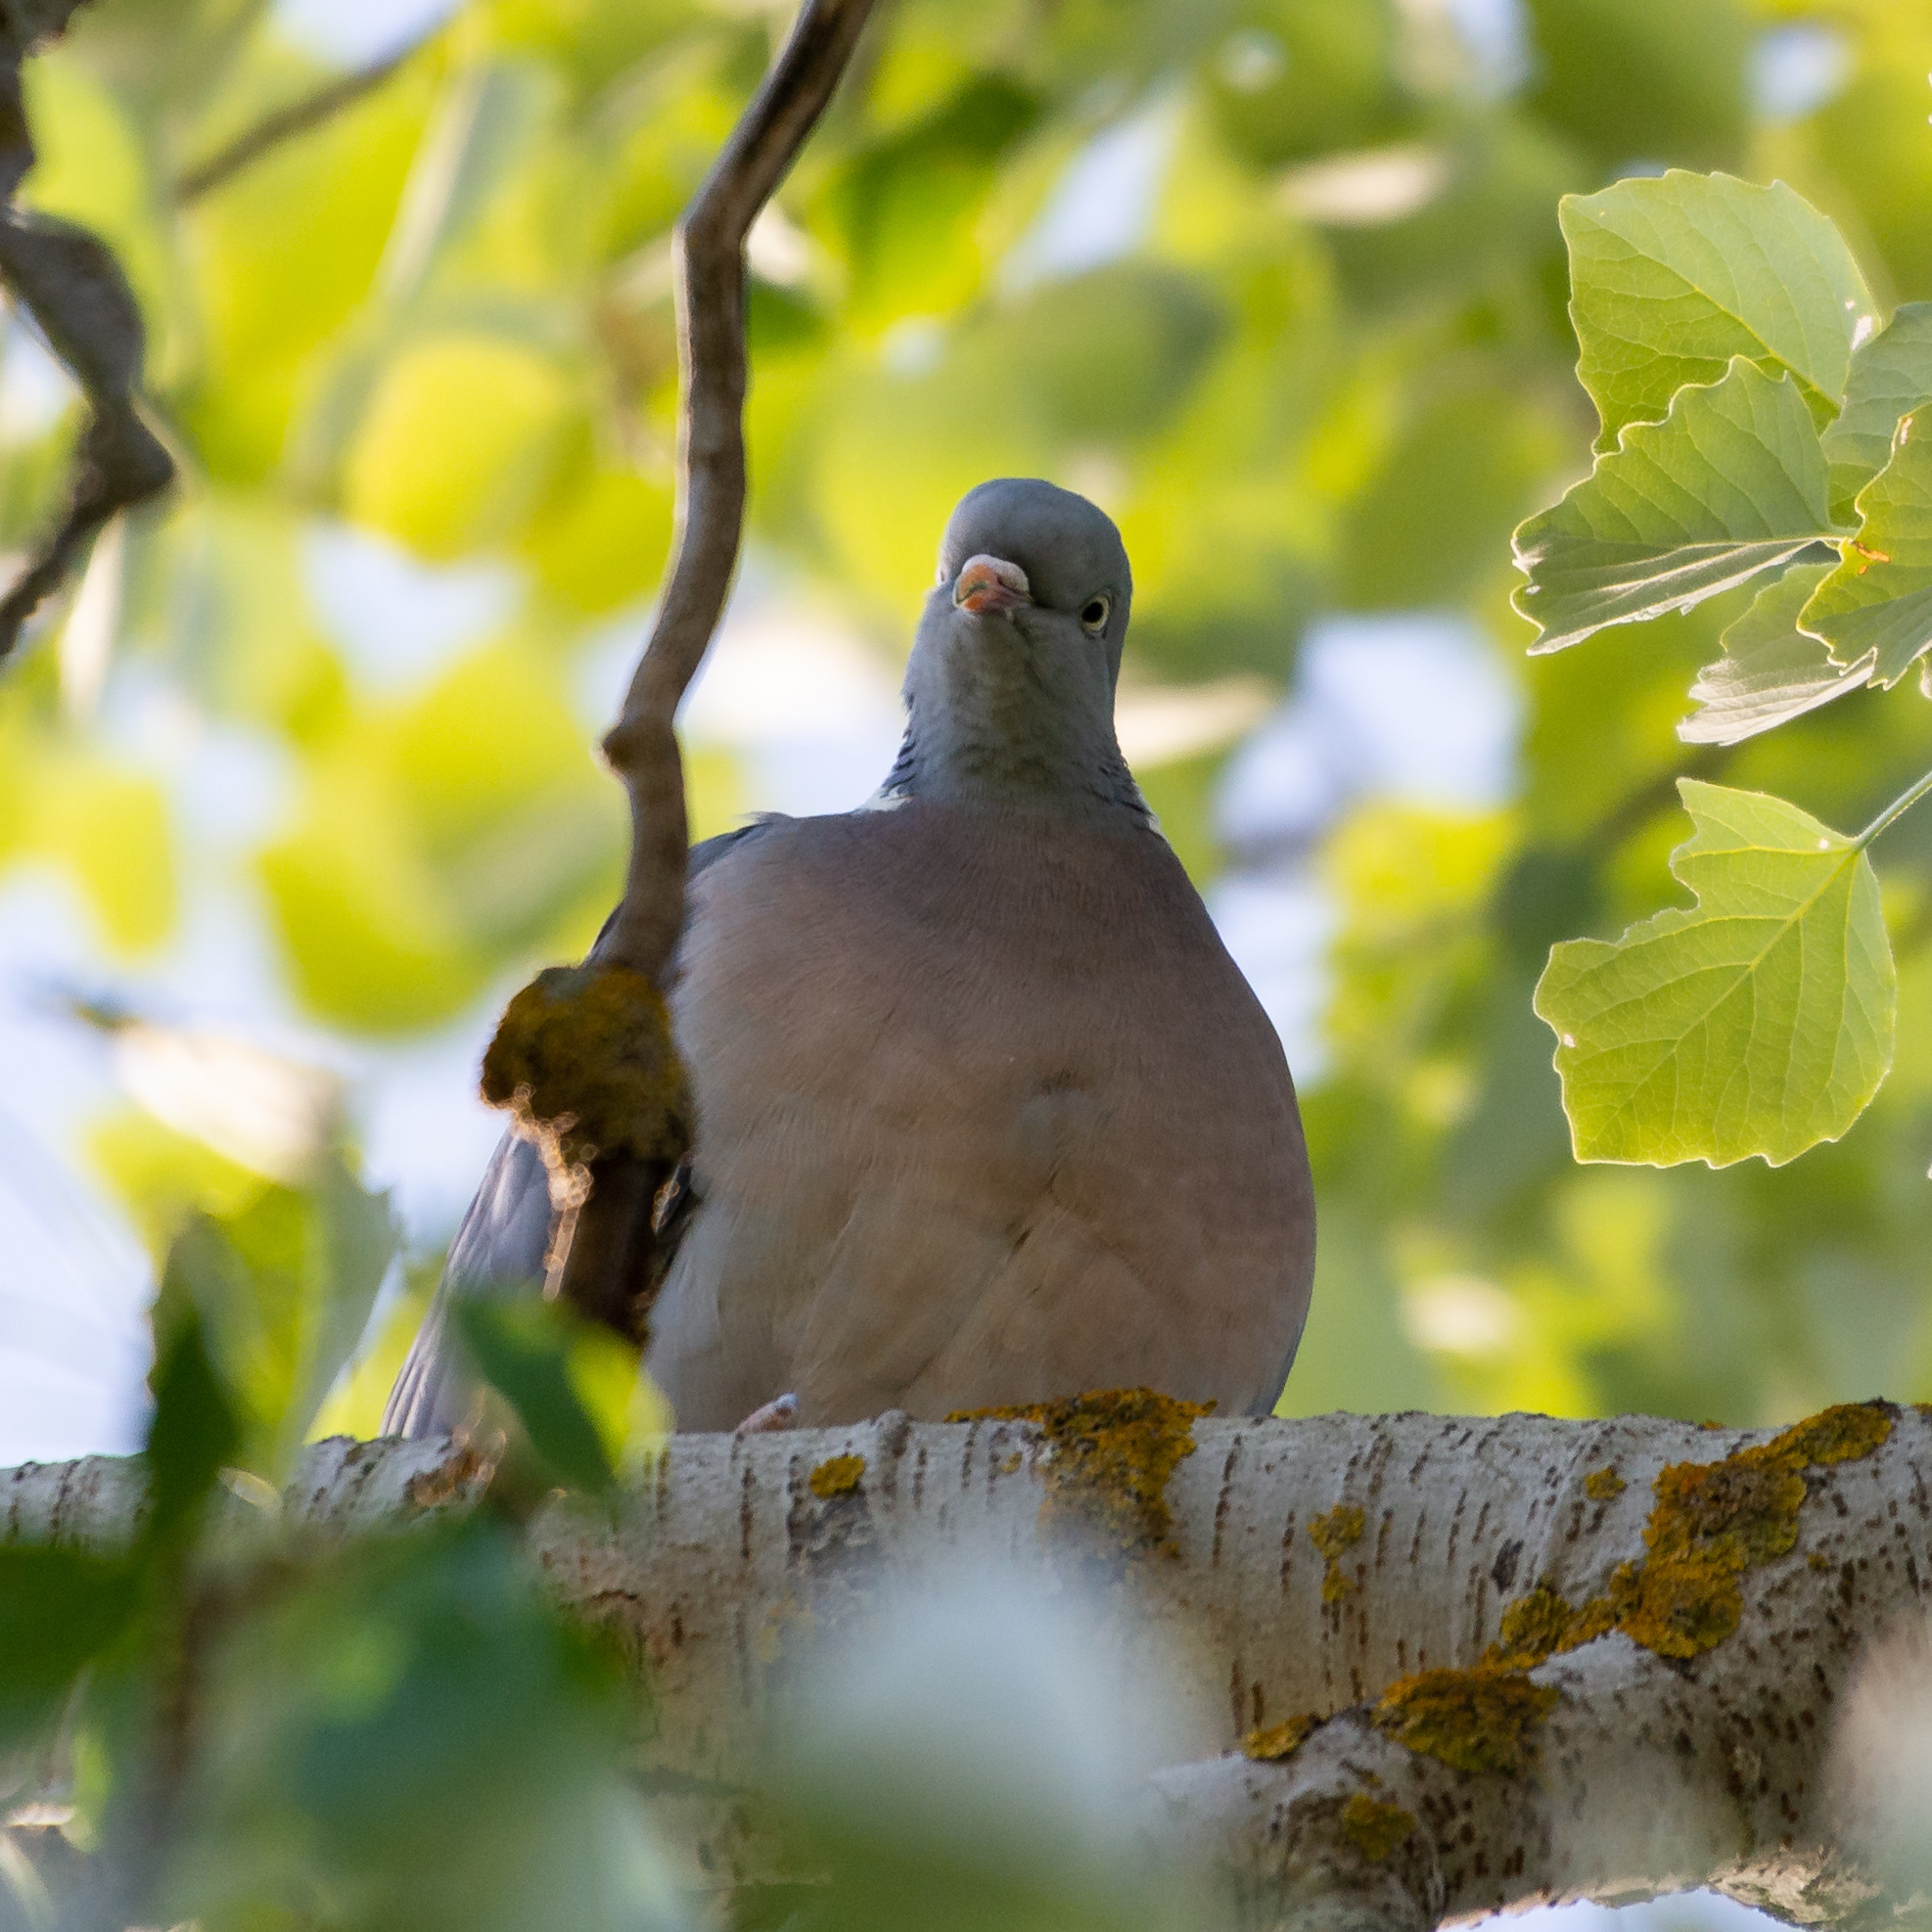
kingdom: Animalia
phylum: Chordata
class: Aves
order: Columbiformes
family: Columbidae
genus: Columba
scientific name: Columba palumbus
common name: Common wood pigeon
